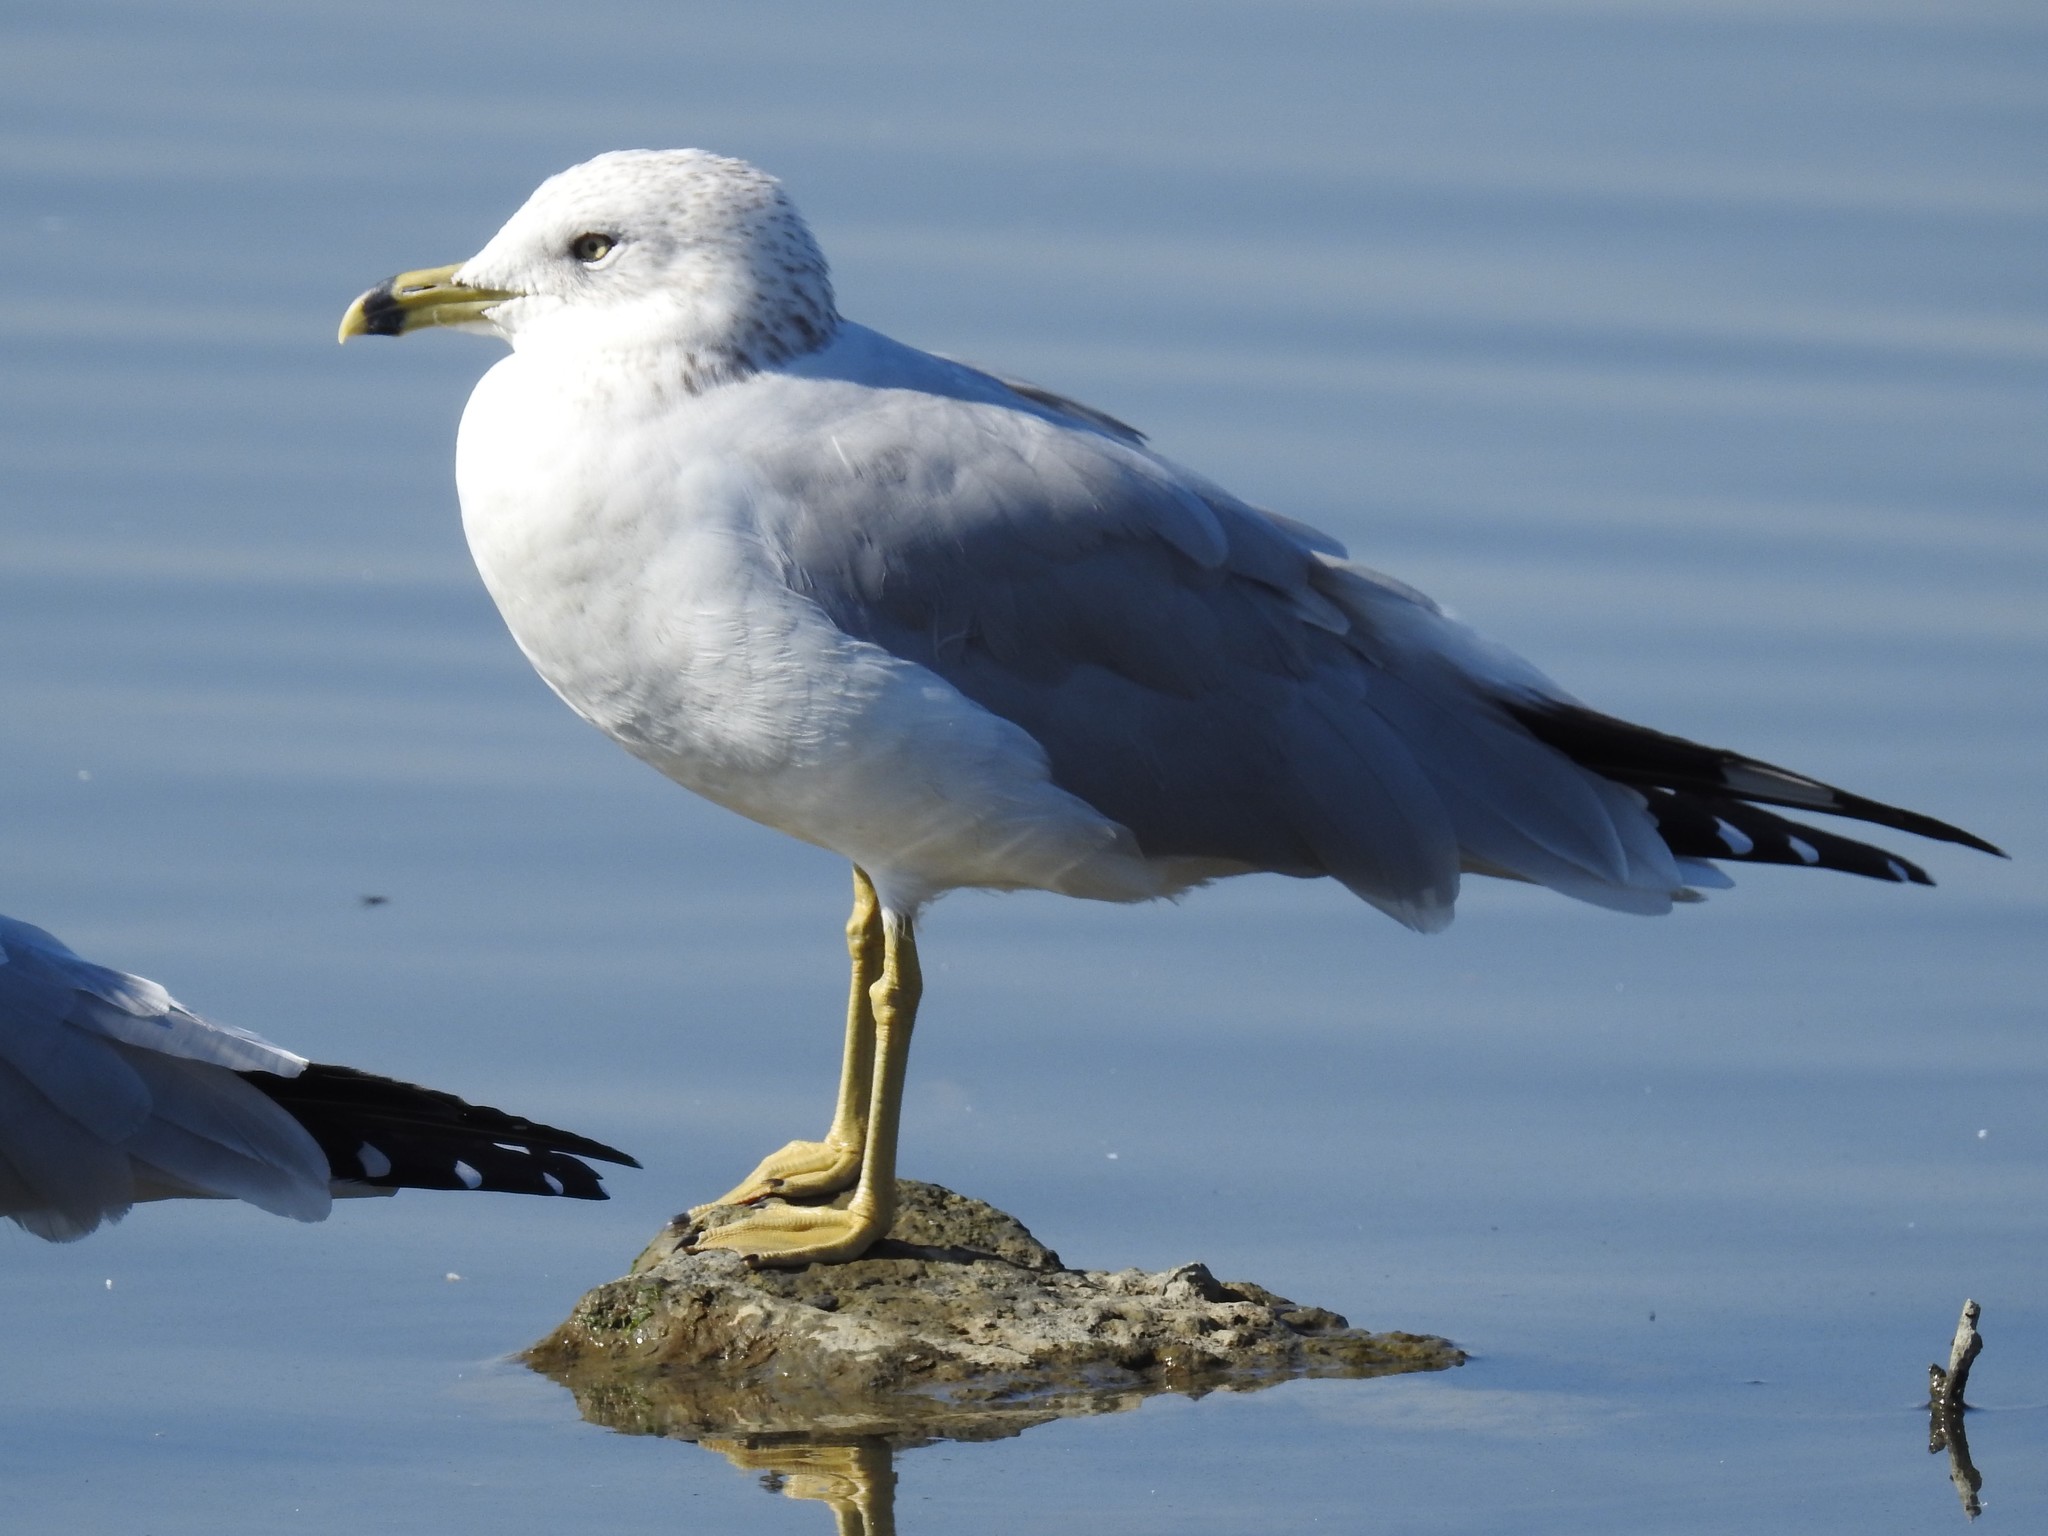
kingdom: Animalia
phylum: Chordata
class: Aves
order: Charadriiformes
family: Laridae
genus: Larus
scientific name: Larus delawarensis
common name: Ring-billed gull
